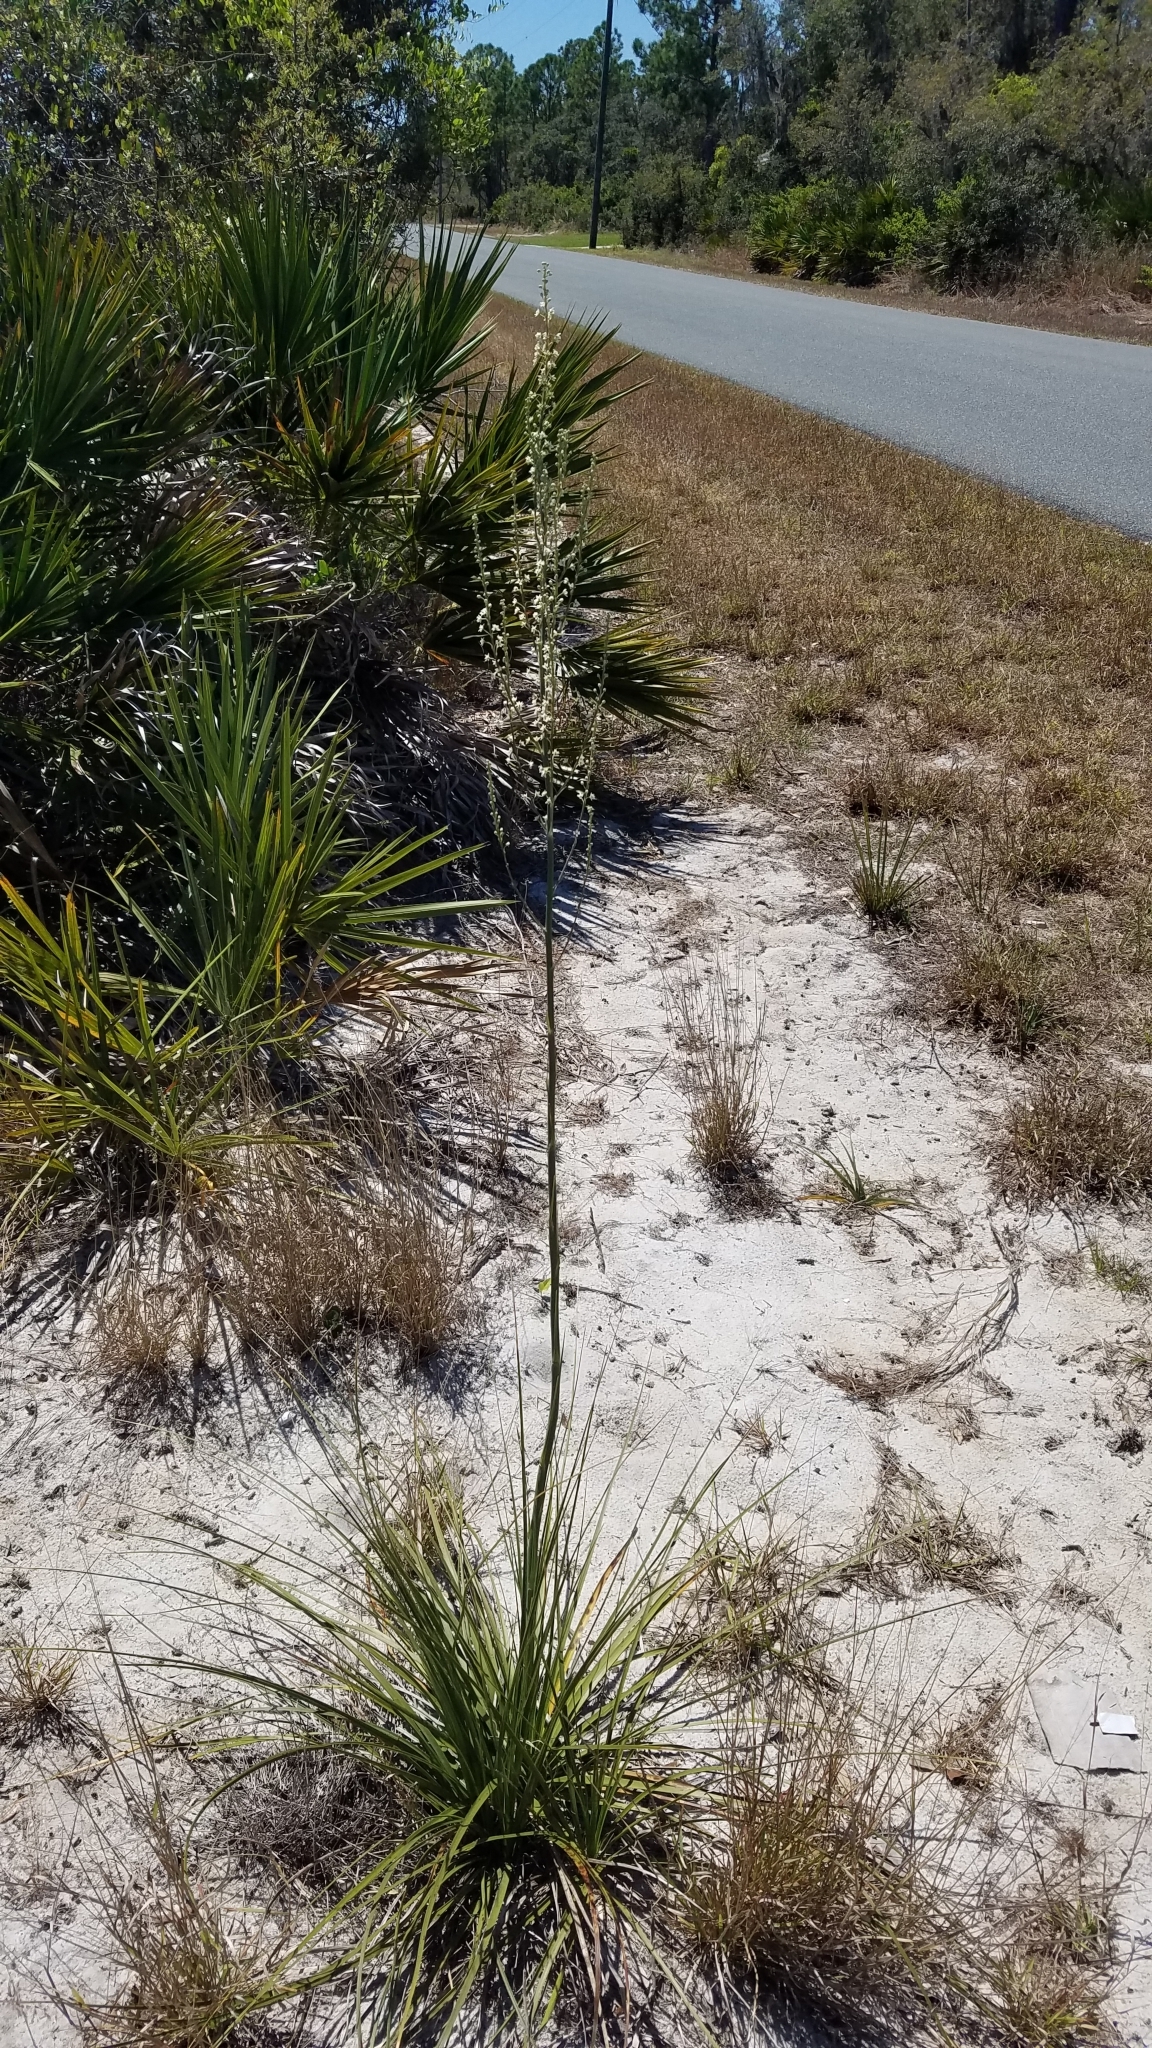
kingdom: Plantae
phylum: Tracheophyta
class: Liliopsida
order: Asparagales
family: Asparagaceae
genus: Nolina
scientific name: Nolina brittoniana
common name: Britton's bear-grass
